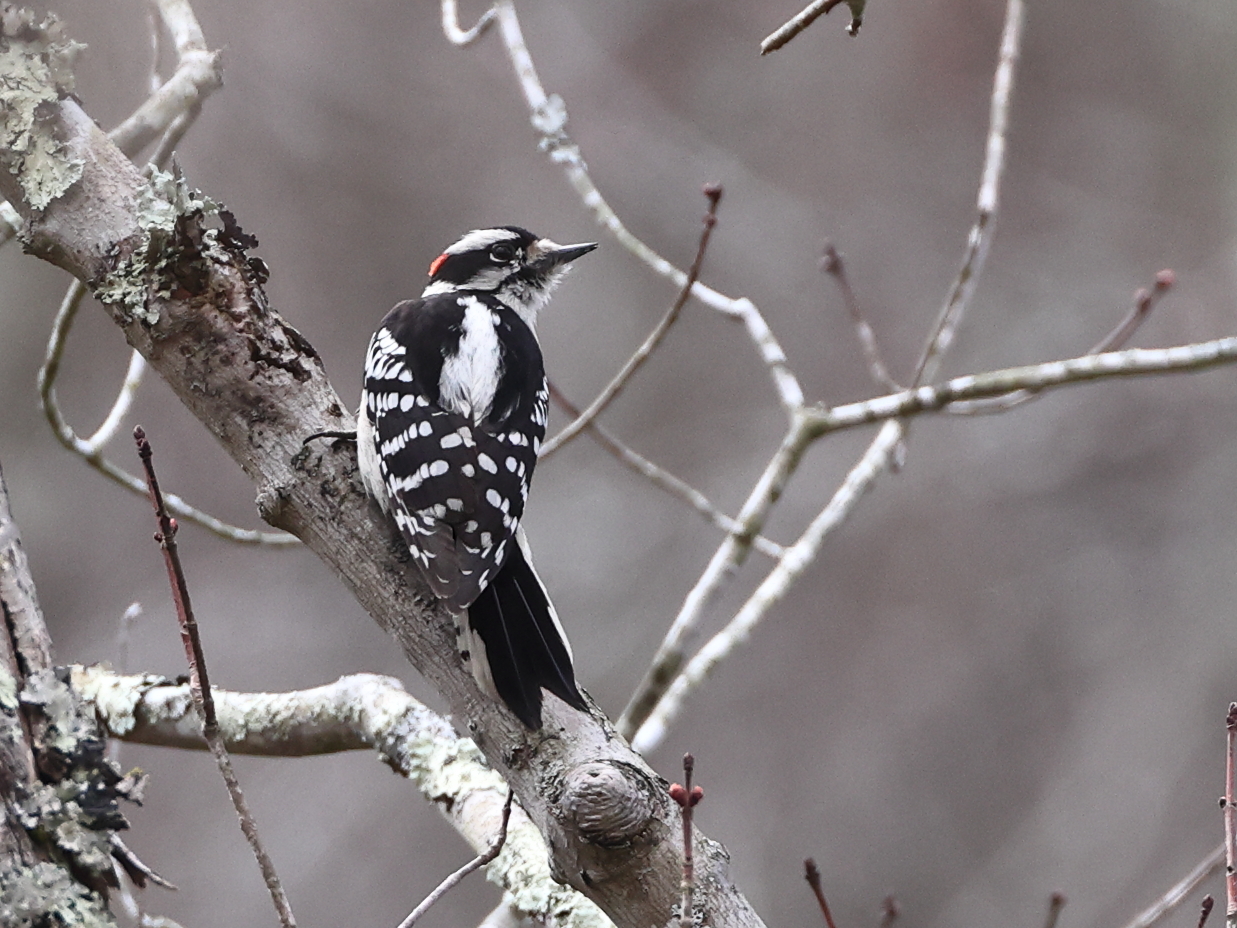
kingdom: Animalia
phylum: Chordata
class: Aves
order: Piciformes
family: Picidae
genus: Dryobates
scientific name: Dryobates pubescens
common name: Downy woodpecker
